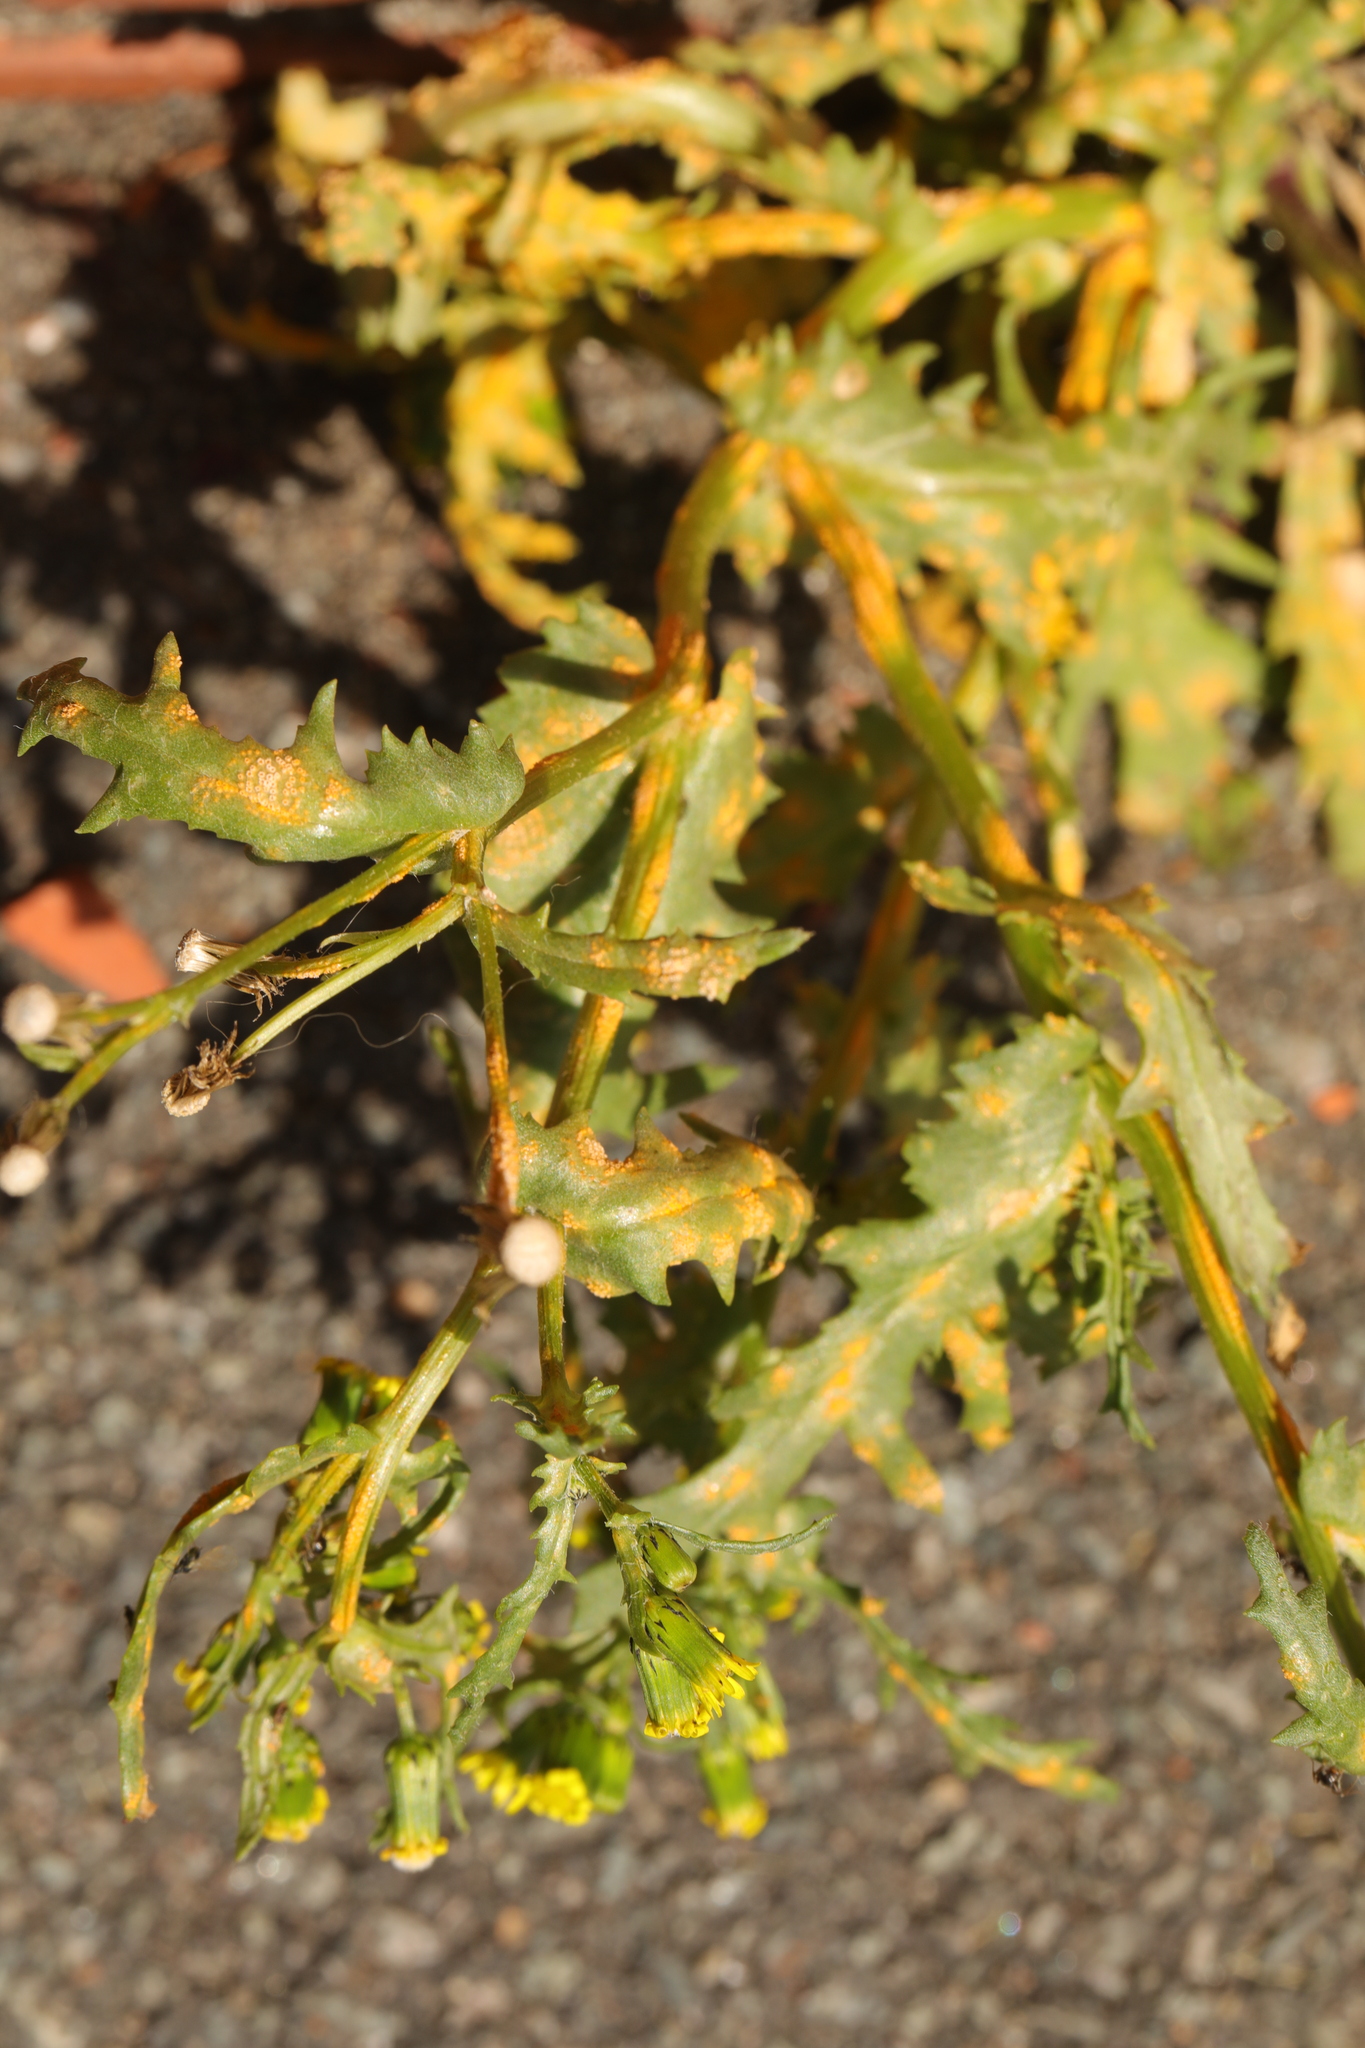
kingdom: Plantae
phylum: Tracheophyta
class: Magnoliopsida
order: Asterales
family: Asteraceae
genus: Senecio
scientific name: Senecio vulgaris
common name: Old-man-in-the-spring
